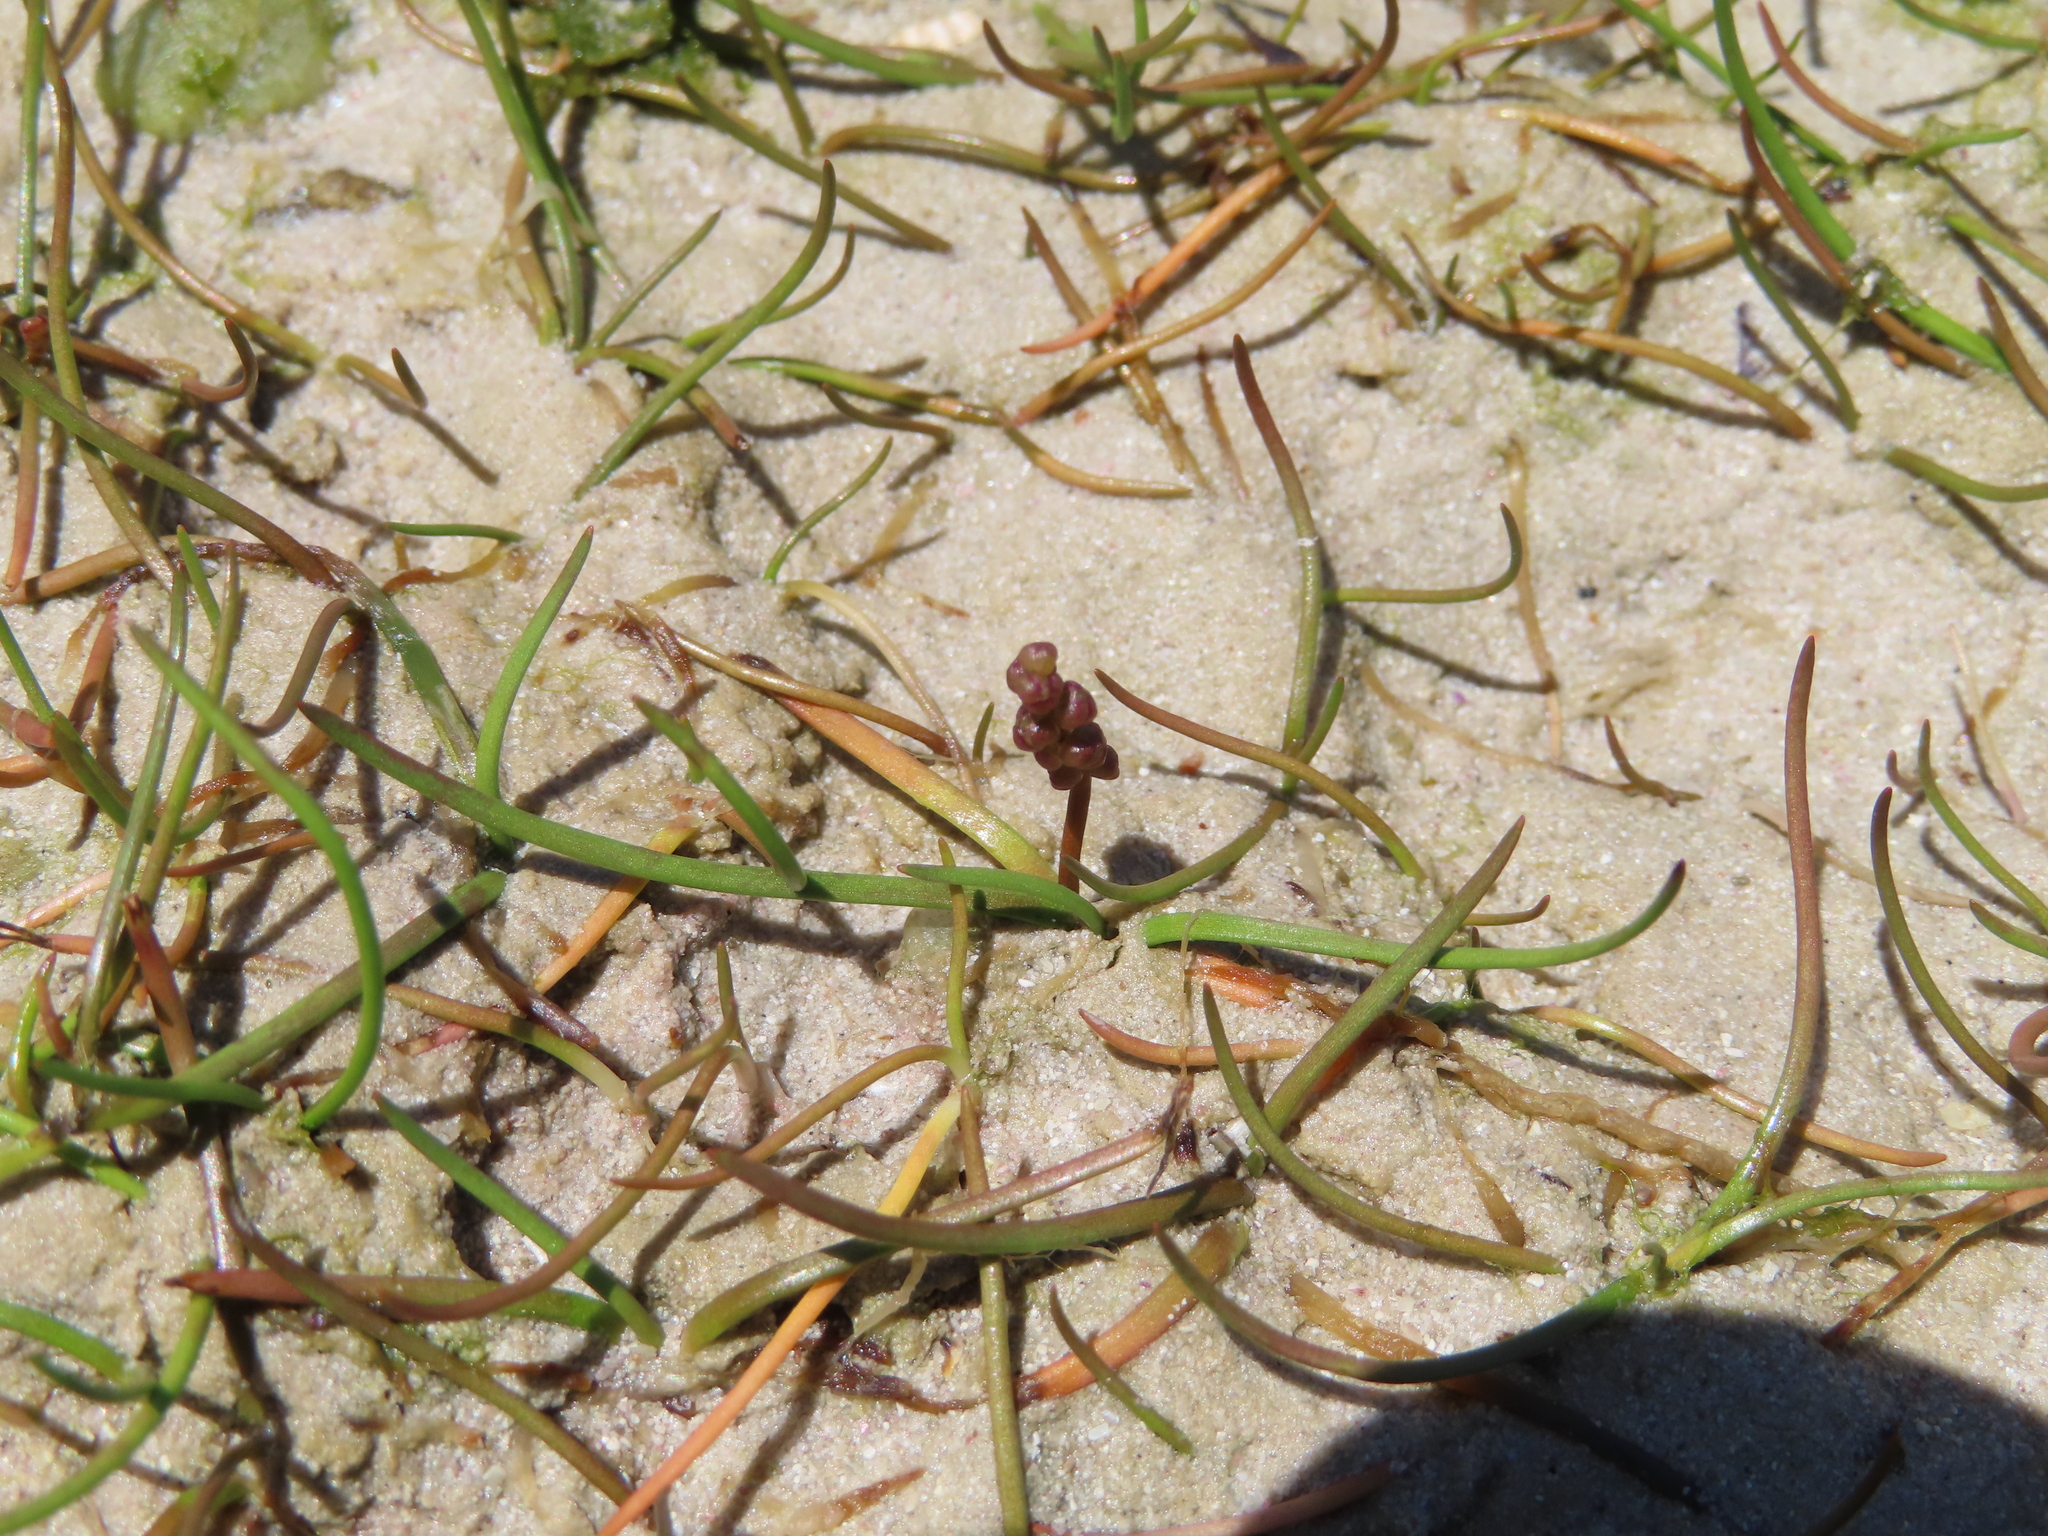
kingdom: Plantae
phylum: Tracheophyta
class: Liliopsida
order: Alismatales
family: Juncaginaceae
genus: Triglochin
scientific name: Triglochin striata
